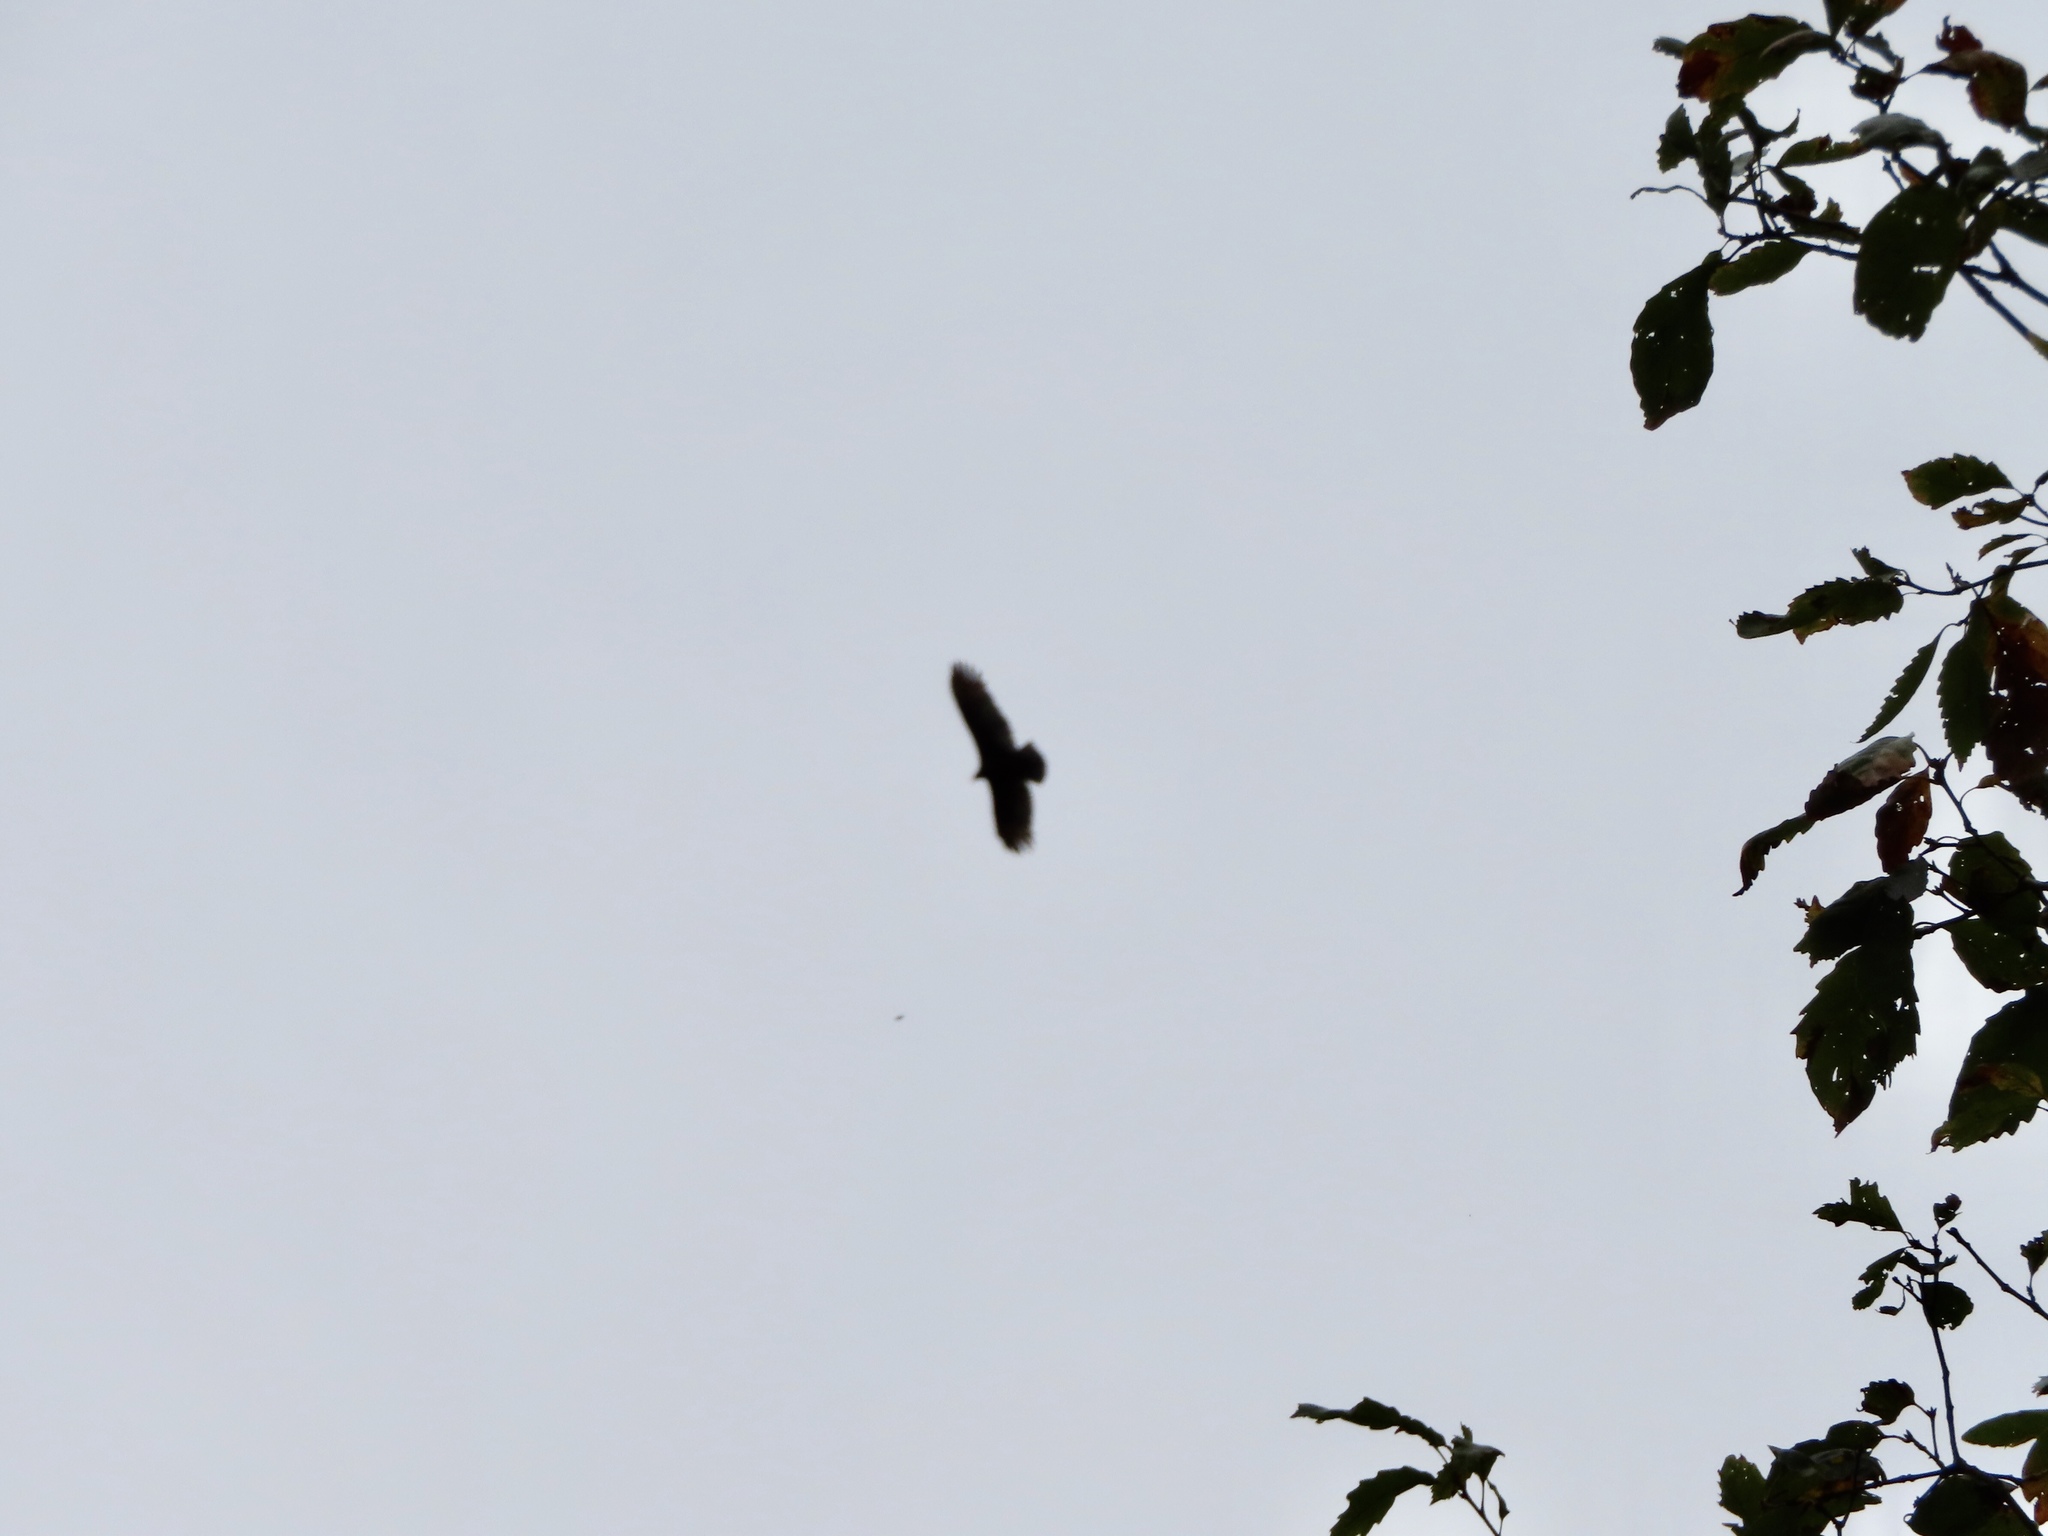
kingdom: Animalia
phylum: Chordata
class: Aves
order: Accipitriformes
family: Cathartidae
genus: Cathartes
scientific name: Cathartes aura
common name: Turkey vulture
